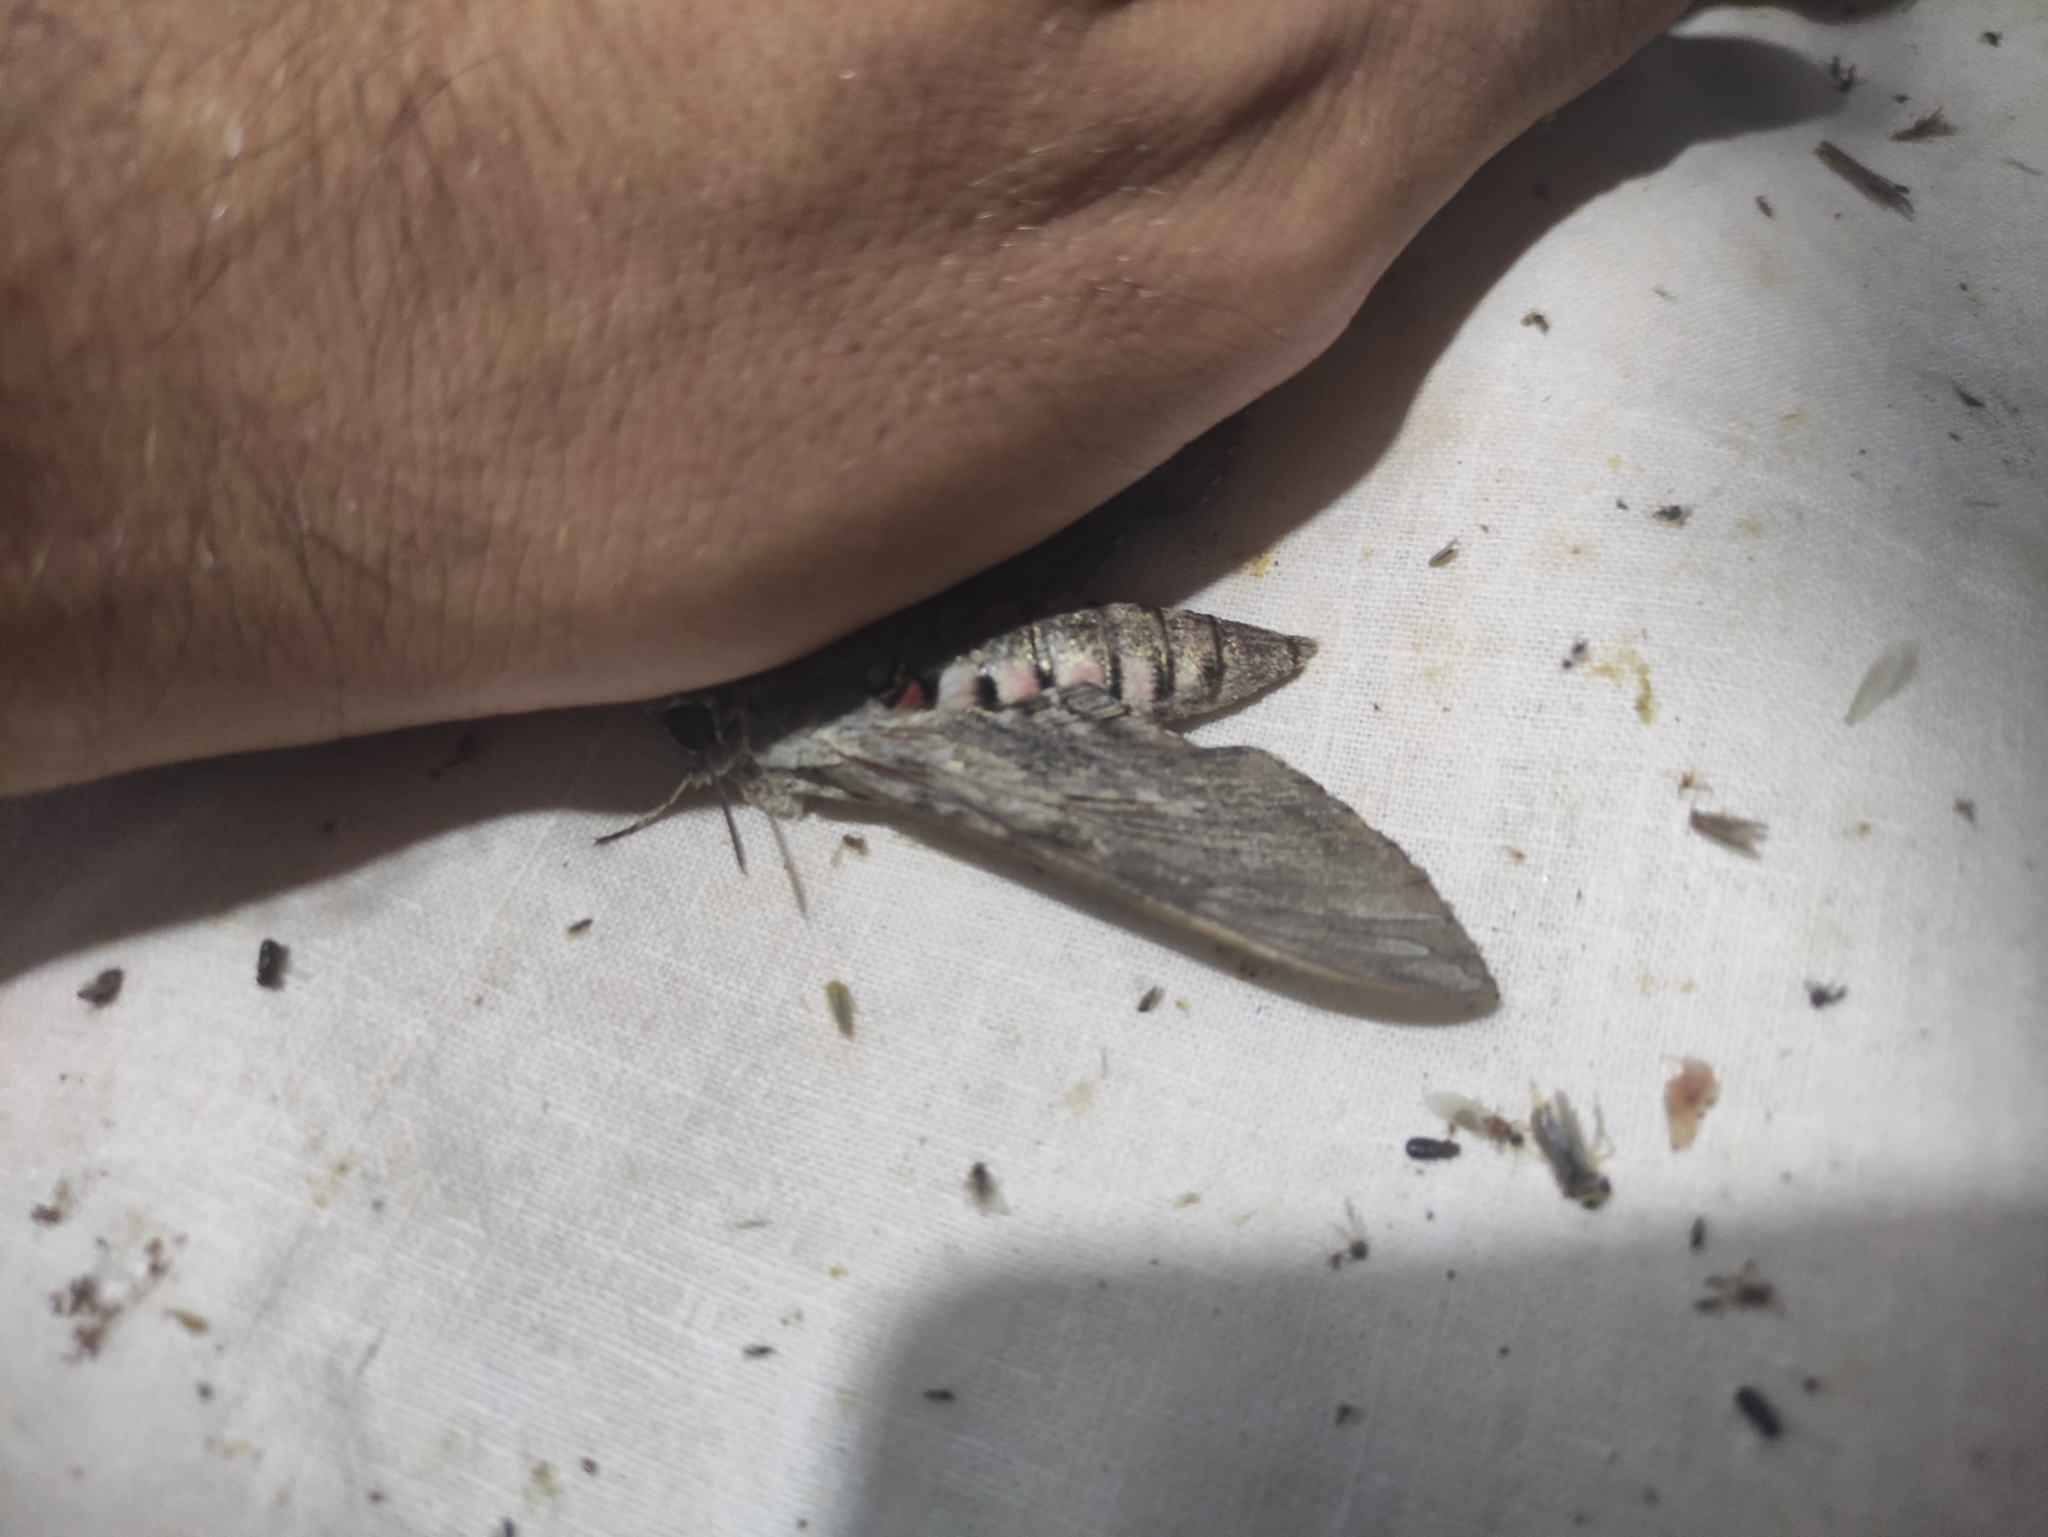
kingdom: Animalia
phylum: Arthropoda
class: Insecta
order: Lepidoptera
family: Sphingidae
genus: Agrius
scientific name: Agrius convolvuli
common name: Convolvulus hawkmoth
